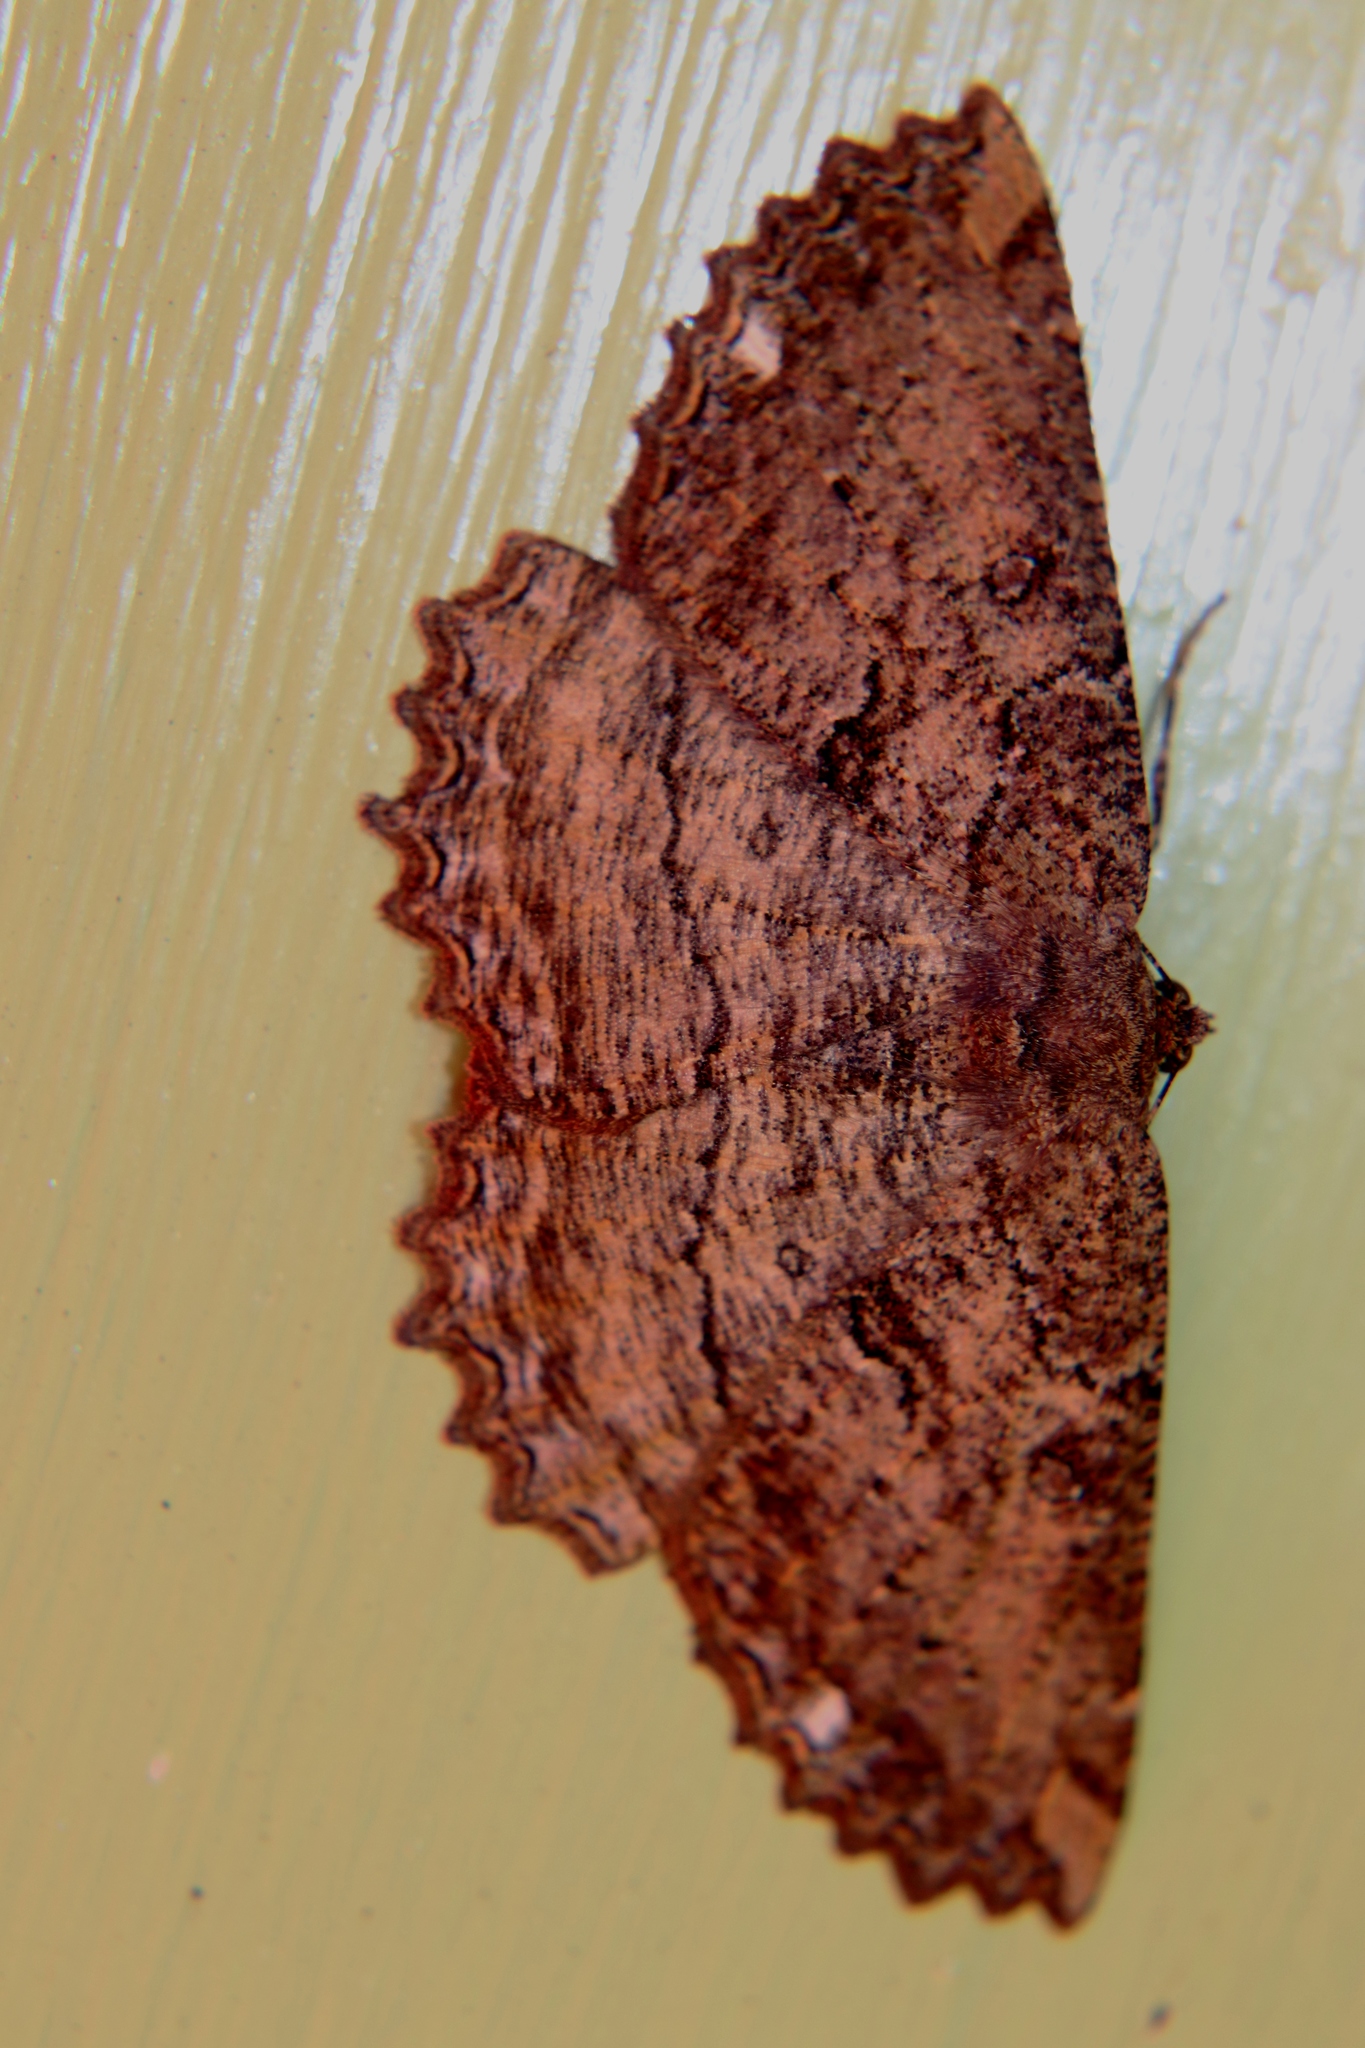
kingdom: Animalia
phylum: Arthropoda
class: Insecta
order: Lepidoptera
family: Geometridae
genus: Gellonia
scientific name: Gellonia dejectaria
